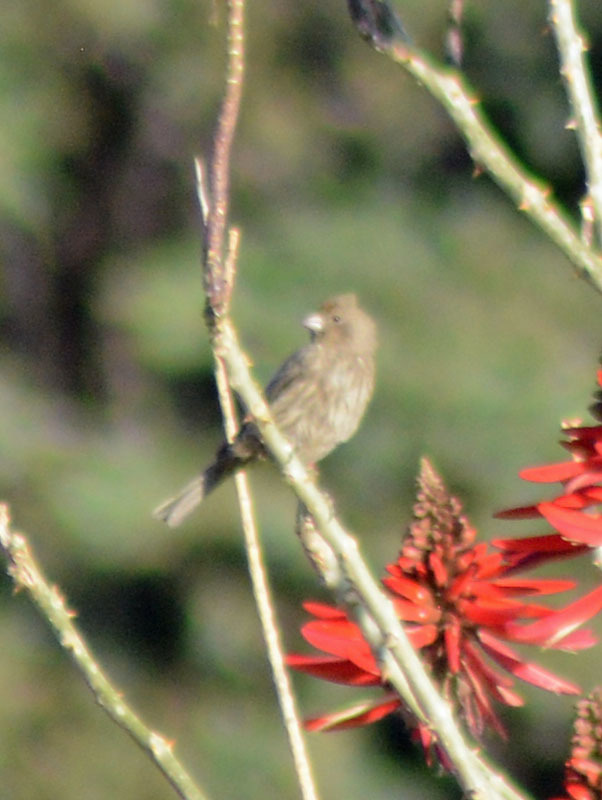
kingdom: Animalia
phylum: Chordata
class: Aves
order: Passeriformes
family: Fringillidae
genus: Haemorhous
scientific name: Haemorhous mexicanus
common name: House finch
